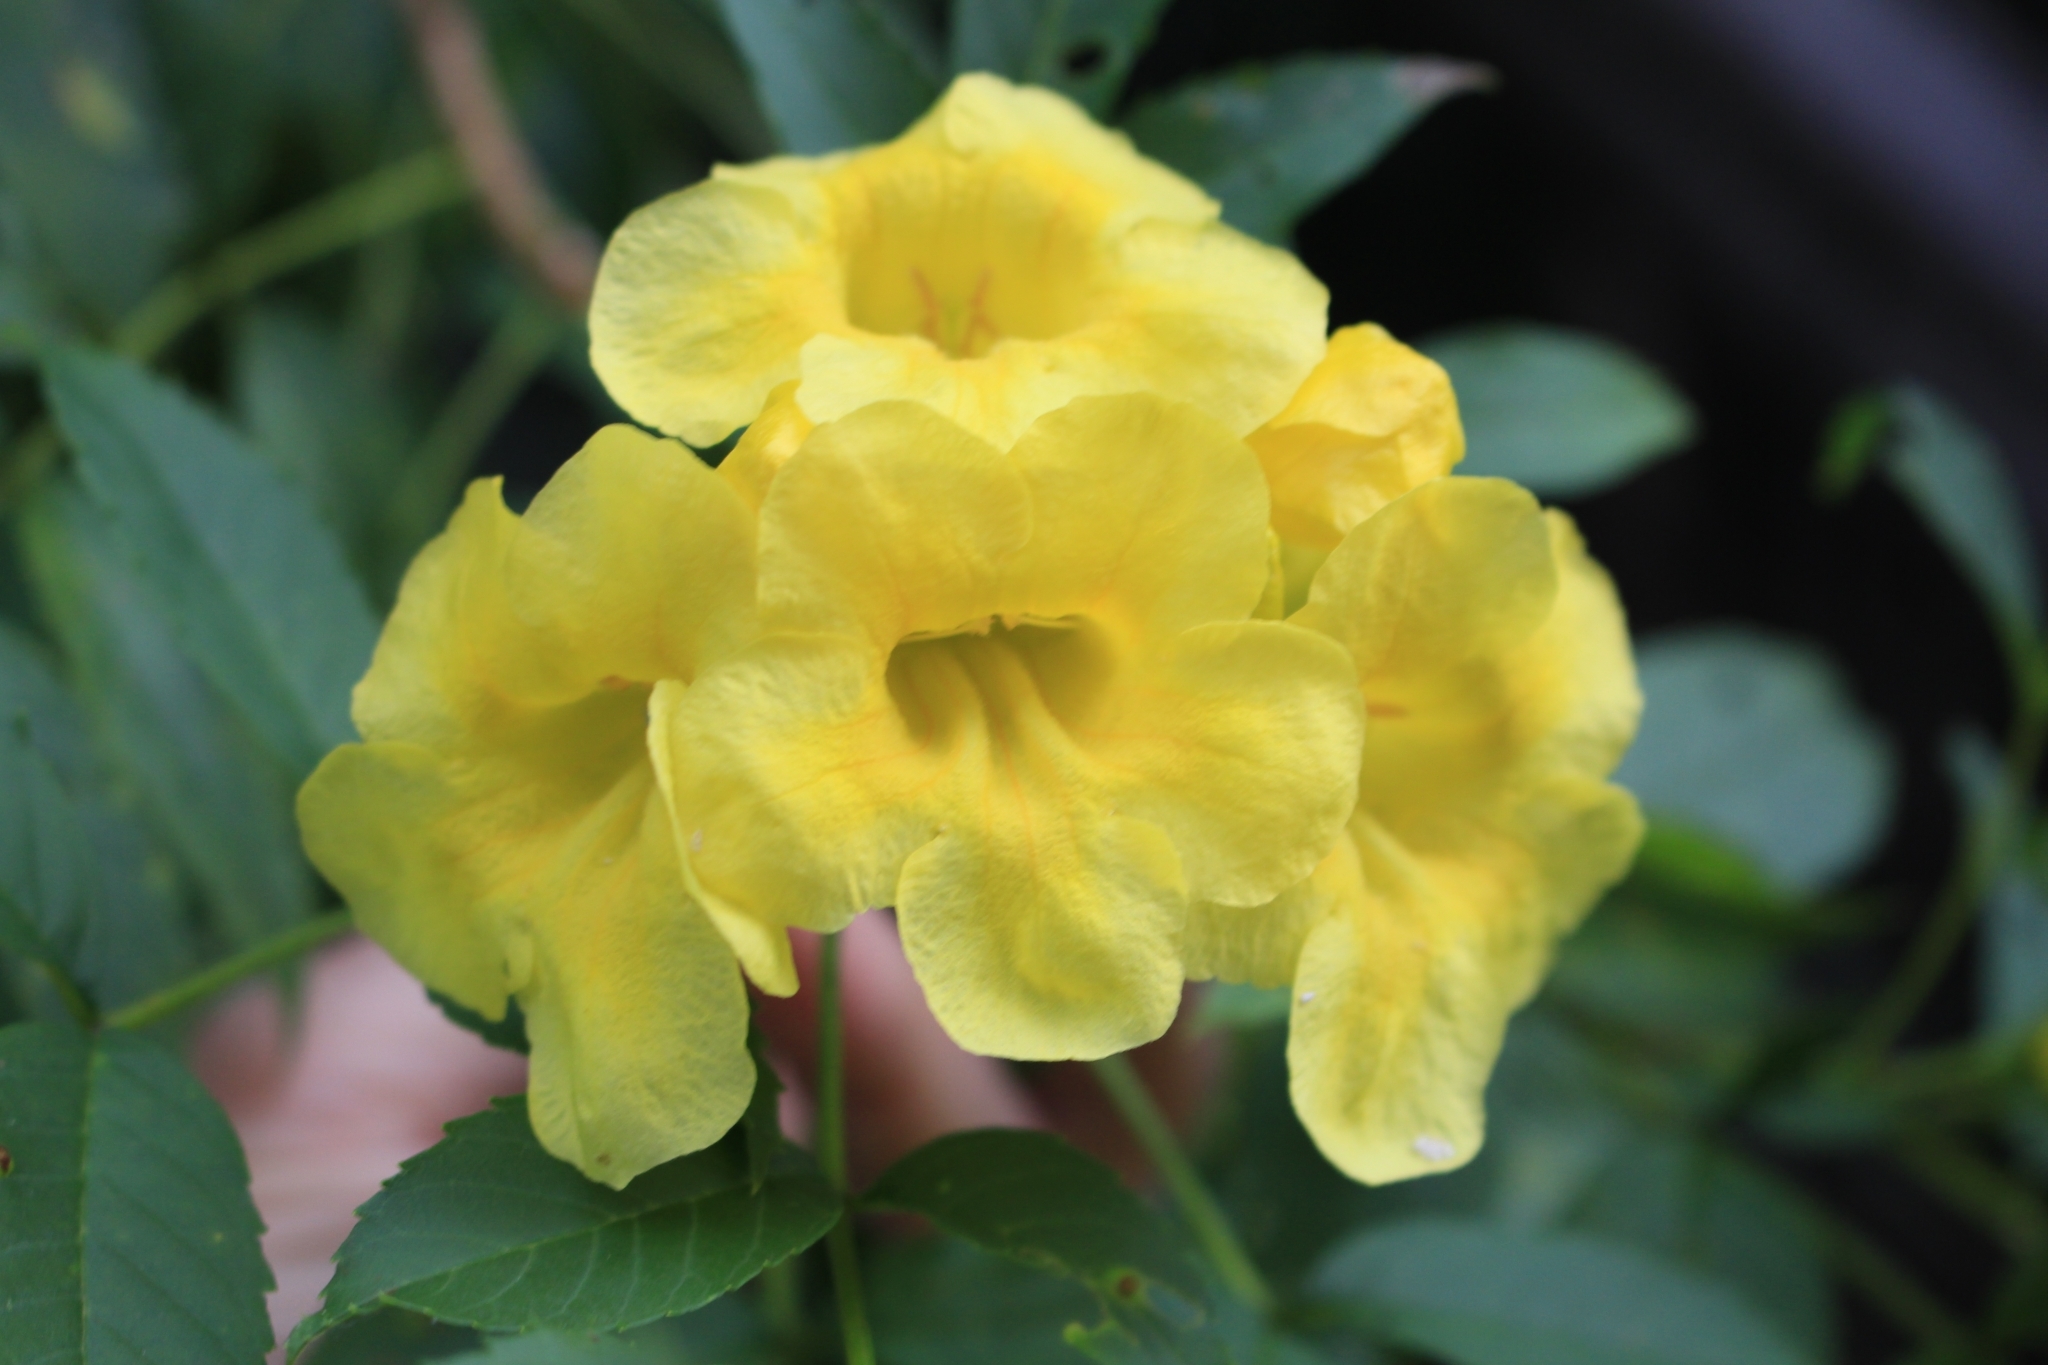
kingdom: Plantae
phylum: Tracheophyta
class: Magnoliopsida
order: Lamiales
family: Bignoniaceae
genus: Tecoma
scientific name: Tecoma stans
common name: Yellow trumpetbush
